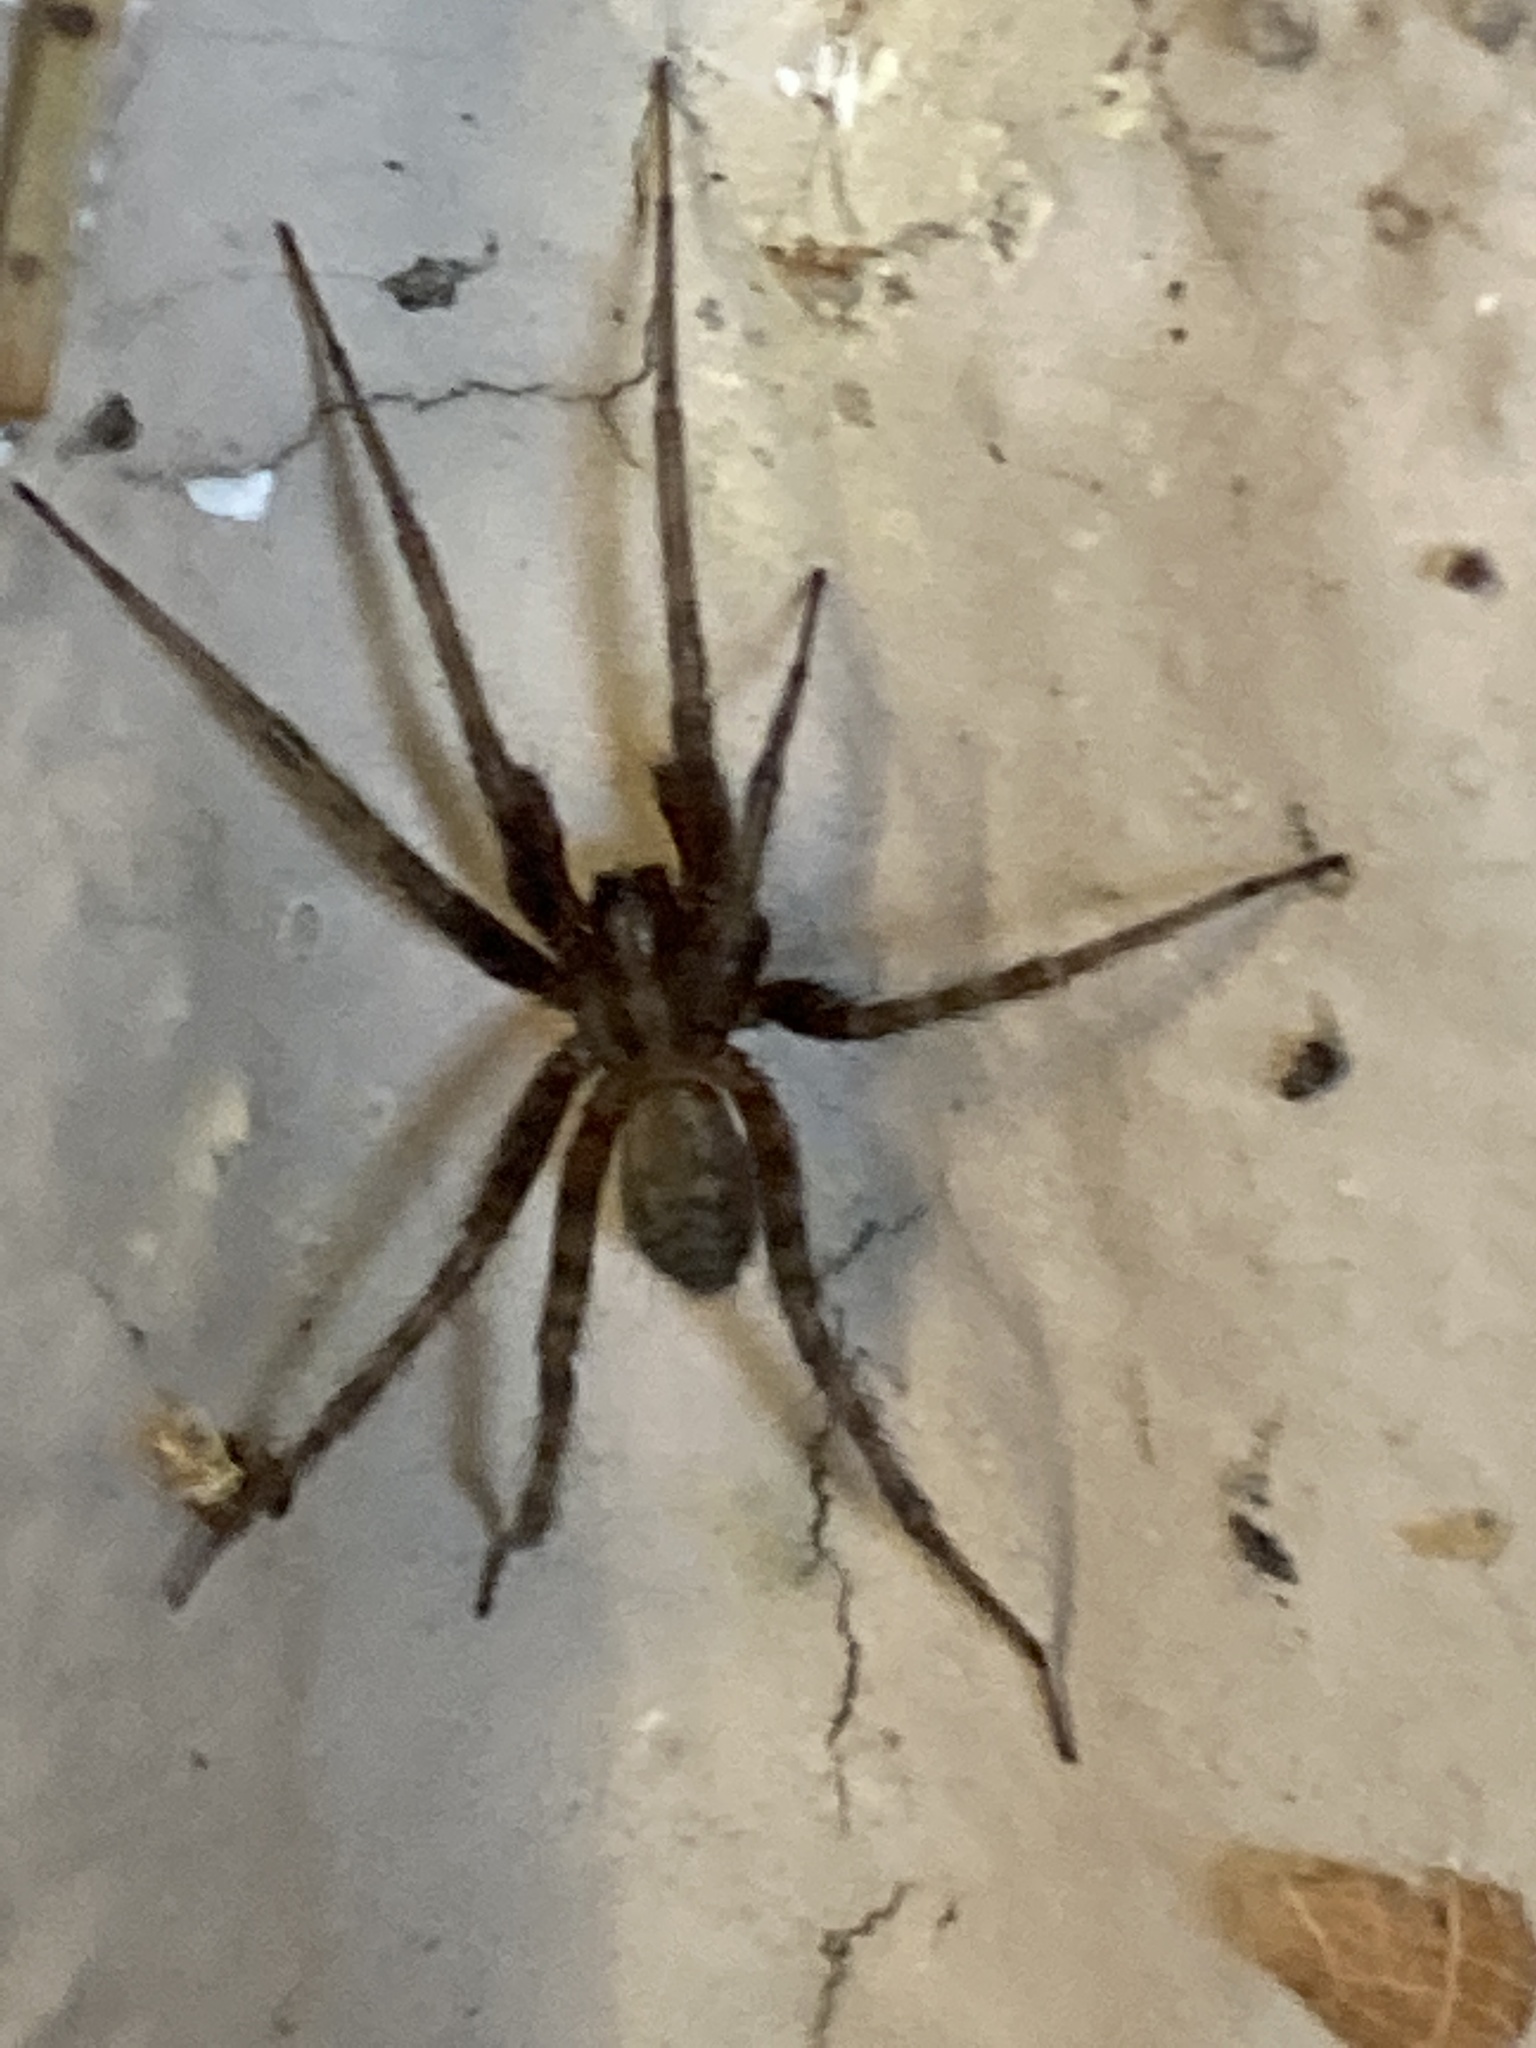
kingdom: Animalia
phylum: Arthropoda
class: Arachnida
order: Araneae
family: Agelenidae
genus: Tegenaria
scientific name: Tegenaria domestica
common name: Barn funnel weaver
